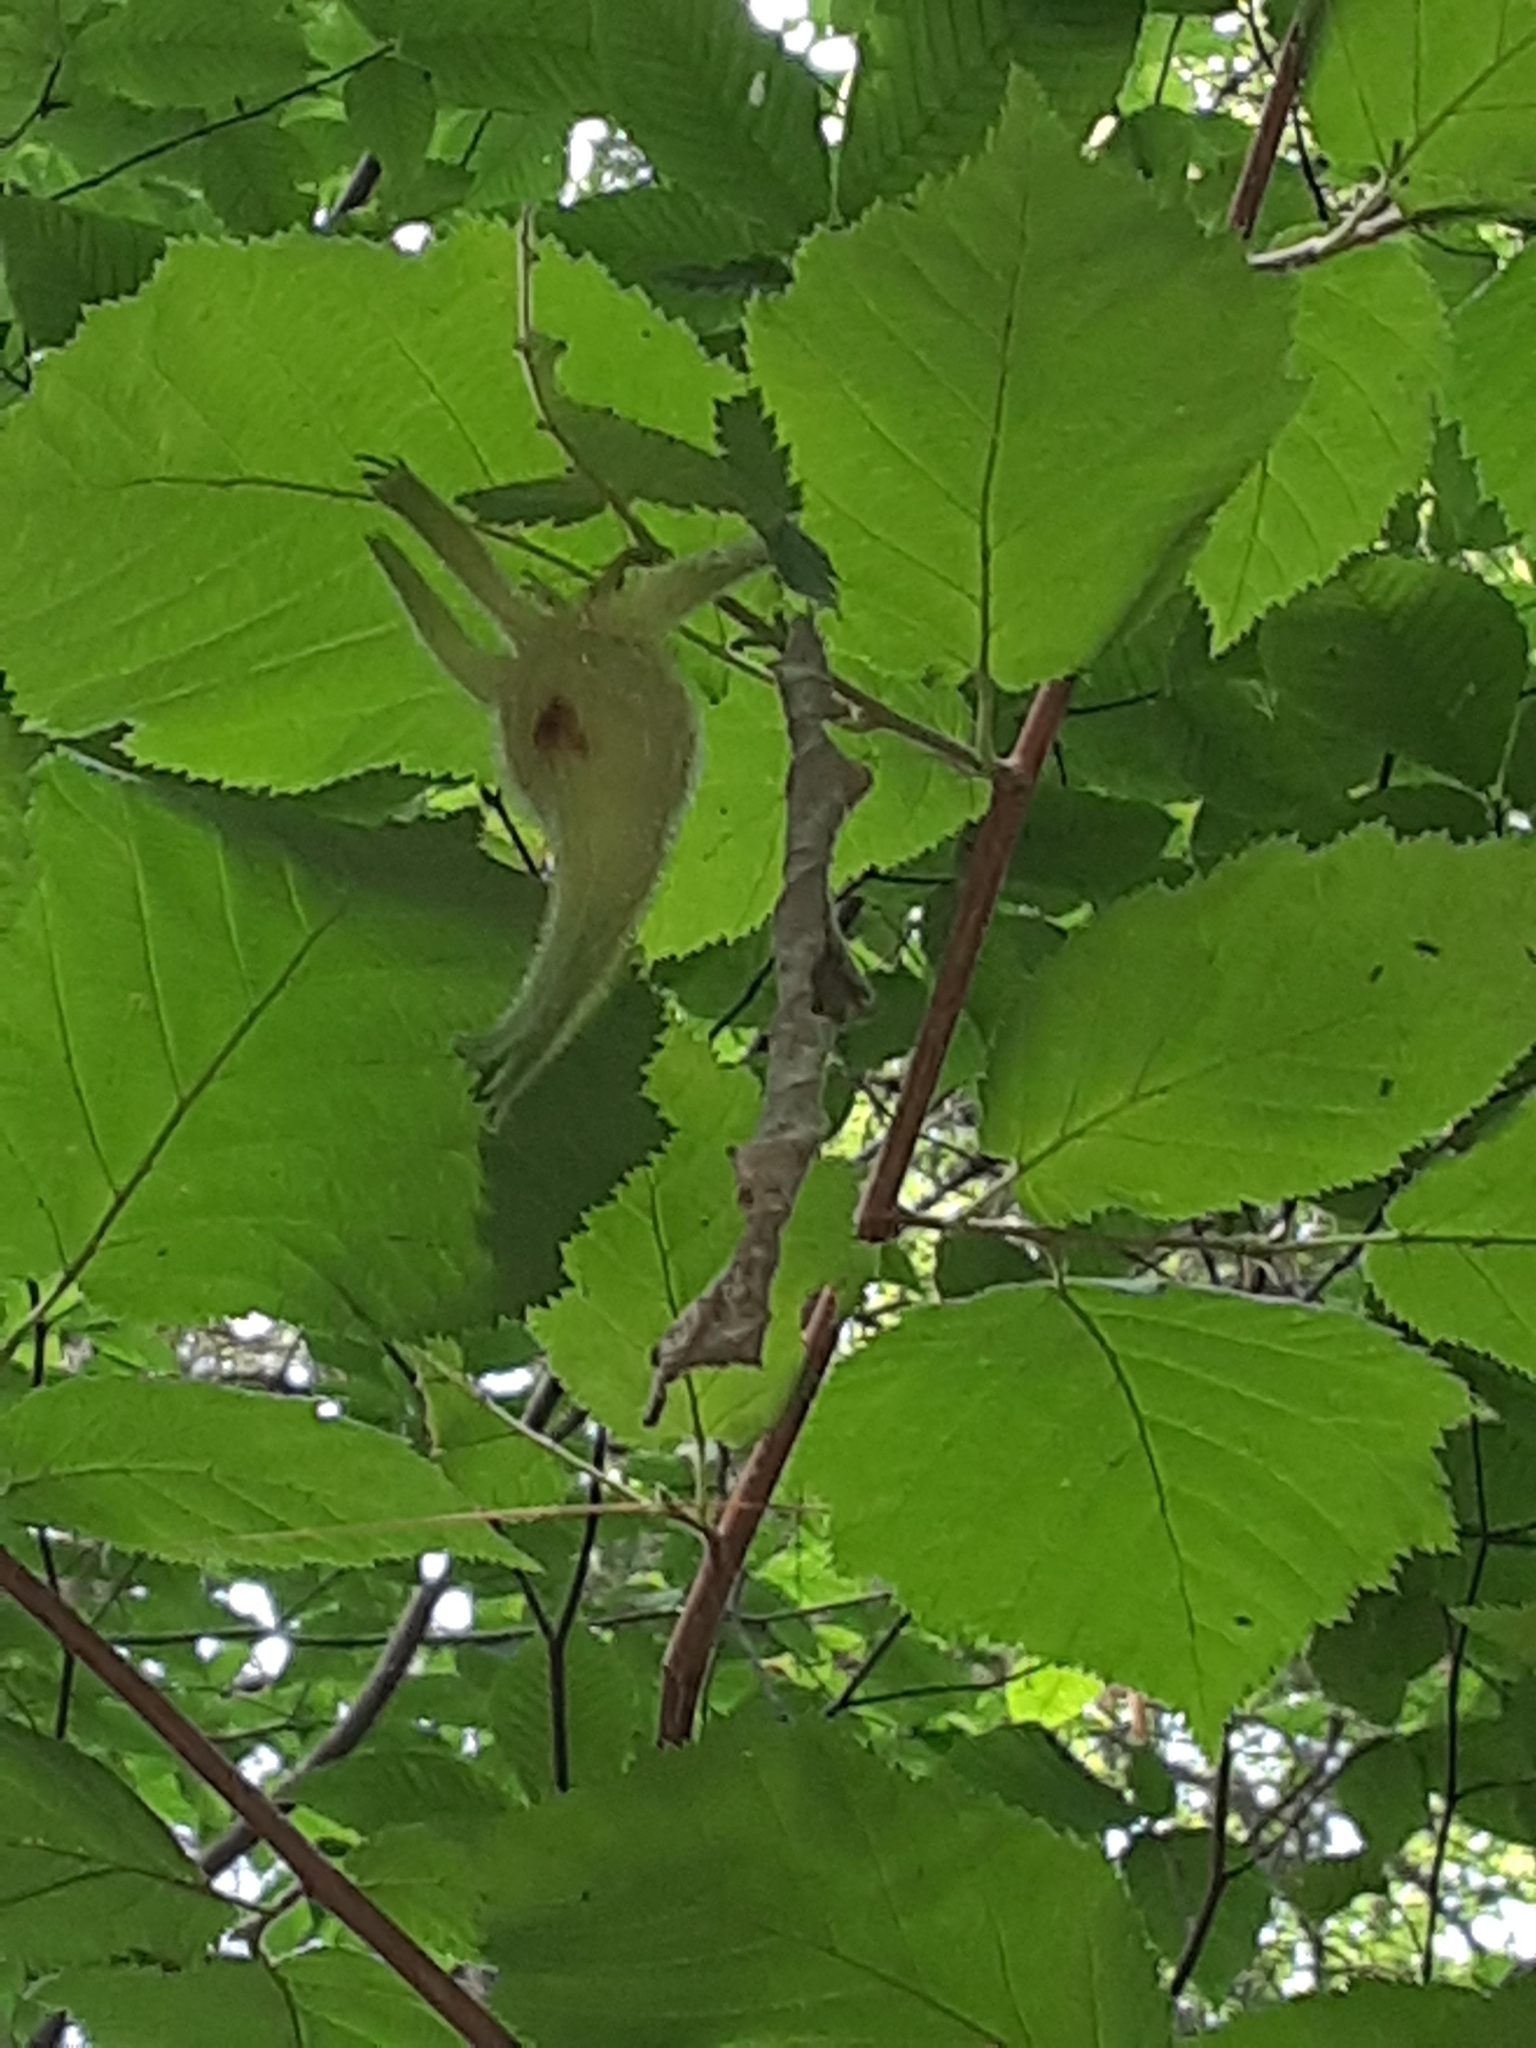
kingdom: Plantae
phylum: Tracheophyta
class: Magnoliopsida
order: Fagales
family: Betulaceae
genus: Corylus
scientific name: Corylus cornuta
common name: Beaked hazel
